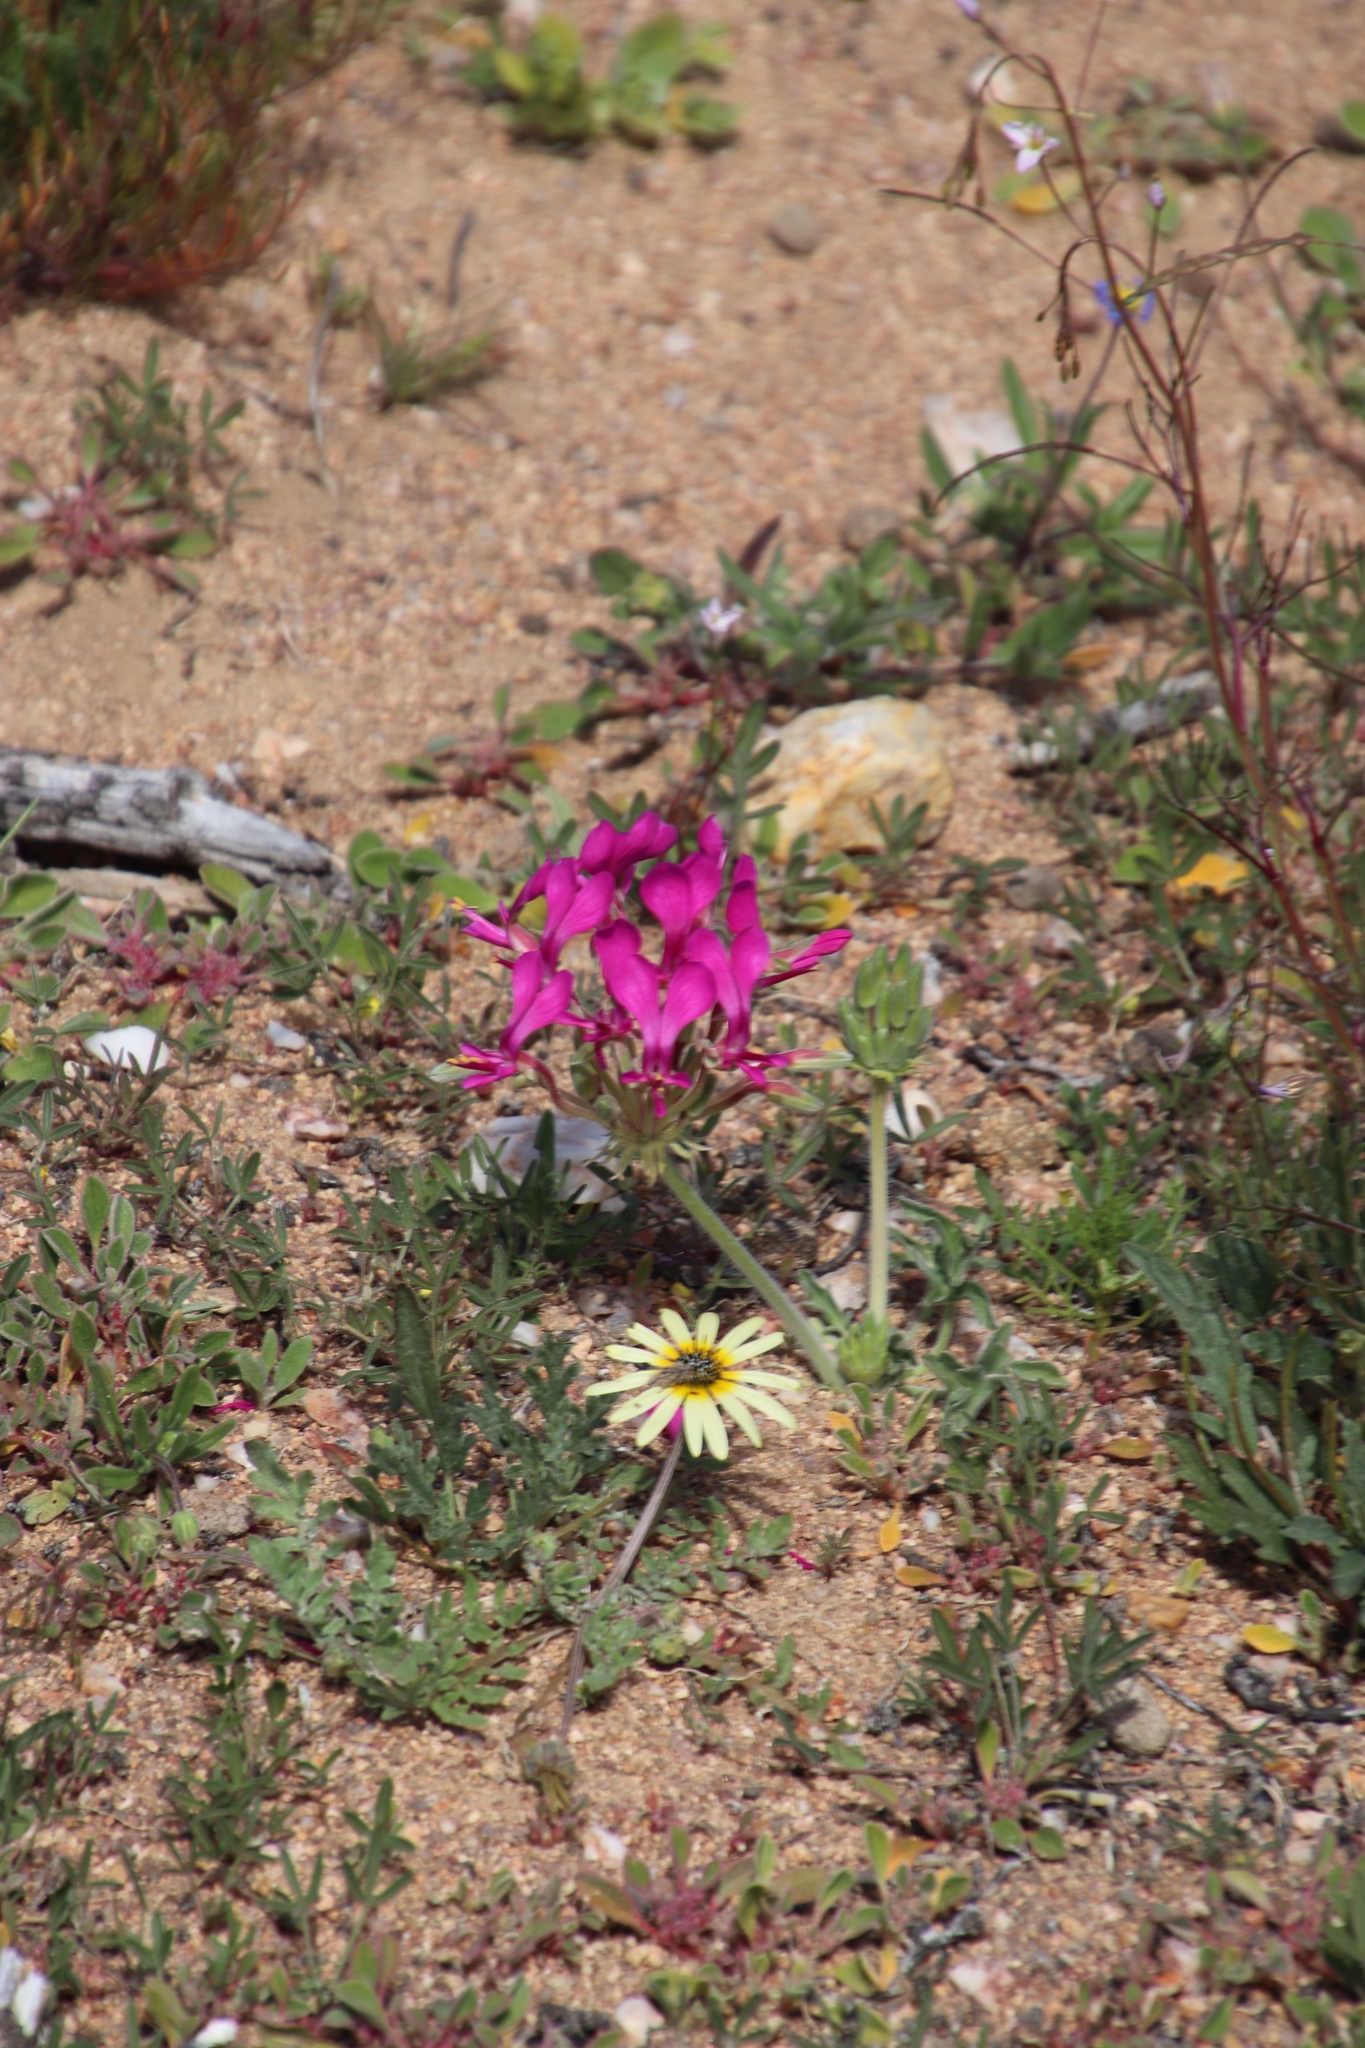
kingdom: Plantae
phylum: Tracheophyta
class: Magnoliopsida
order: Geraniales
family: Geraniaceae
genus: Pelargonium
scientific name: Pelargonium incrassatum
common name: Namaqualand beauty
